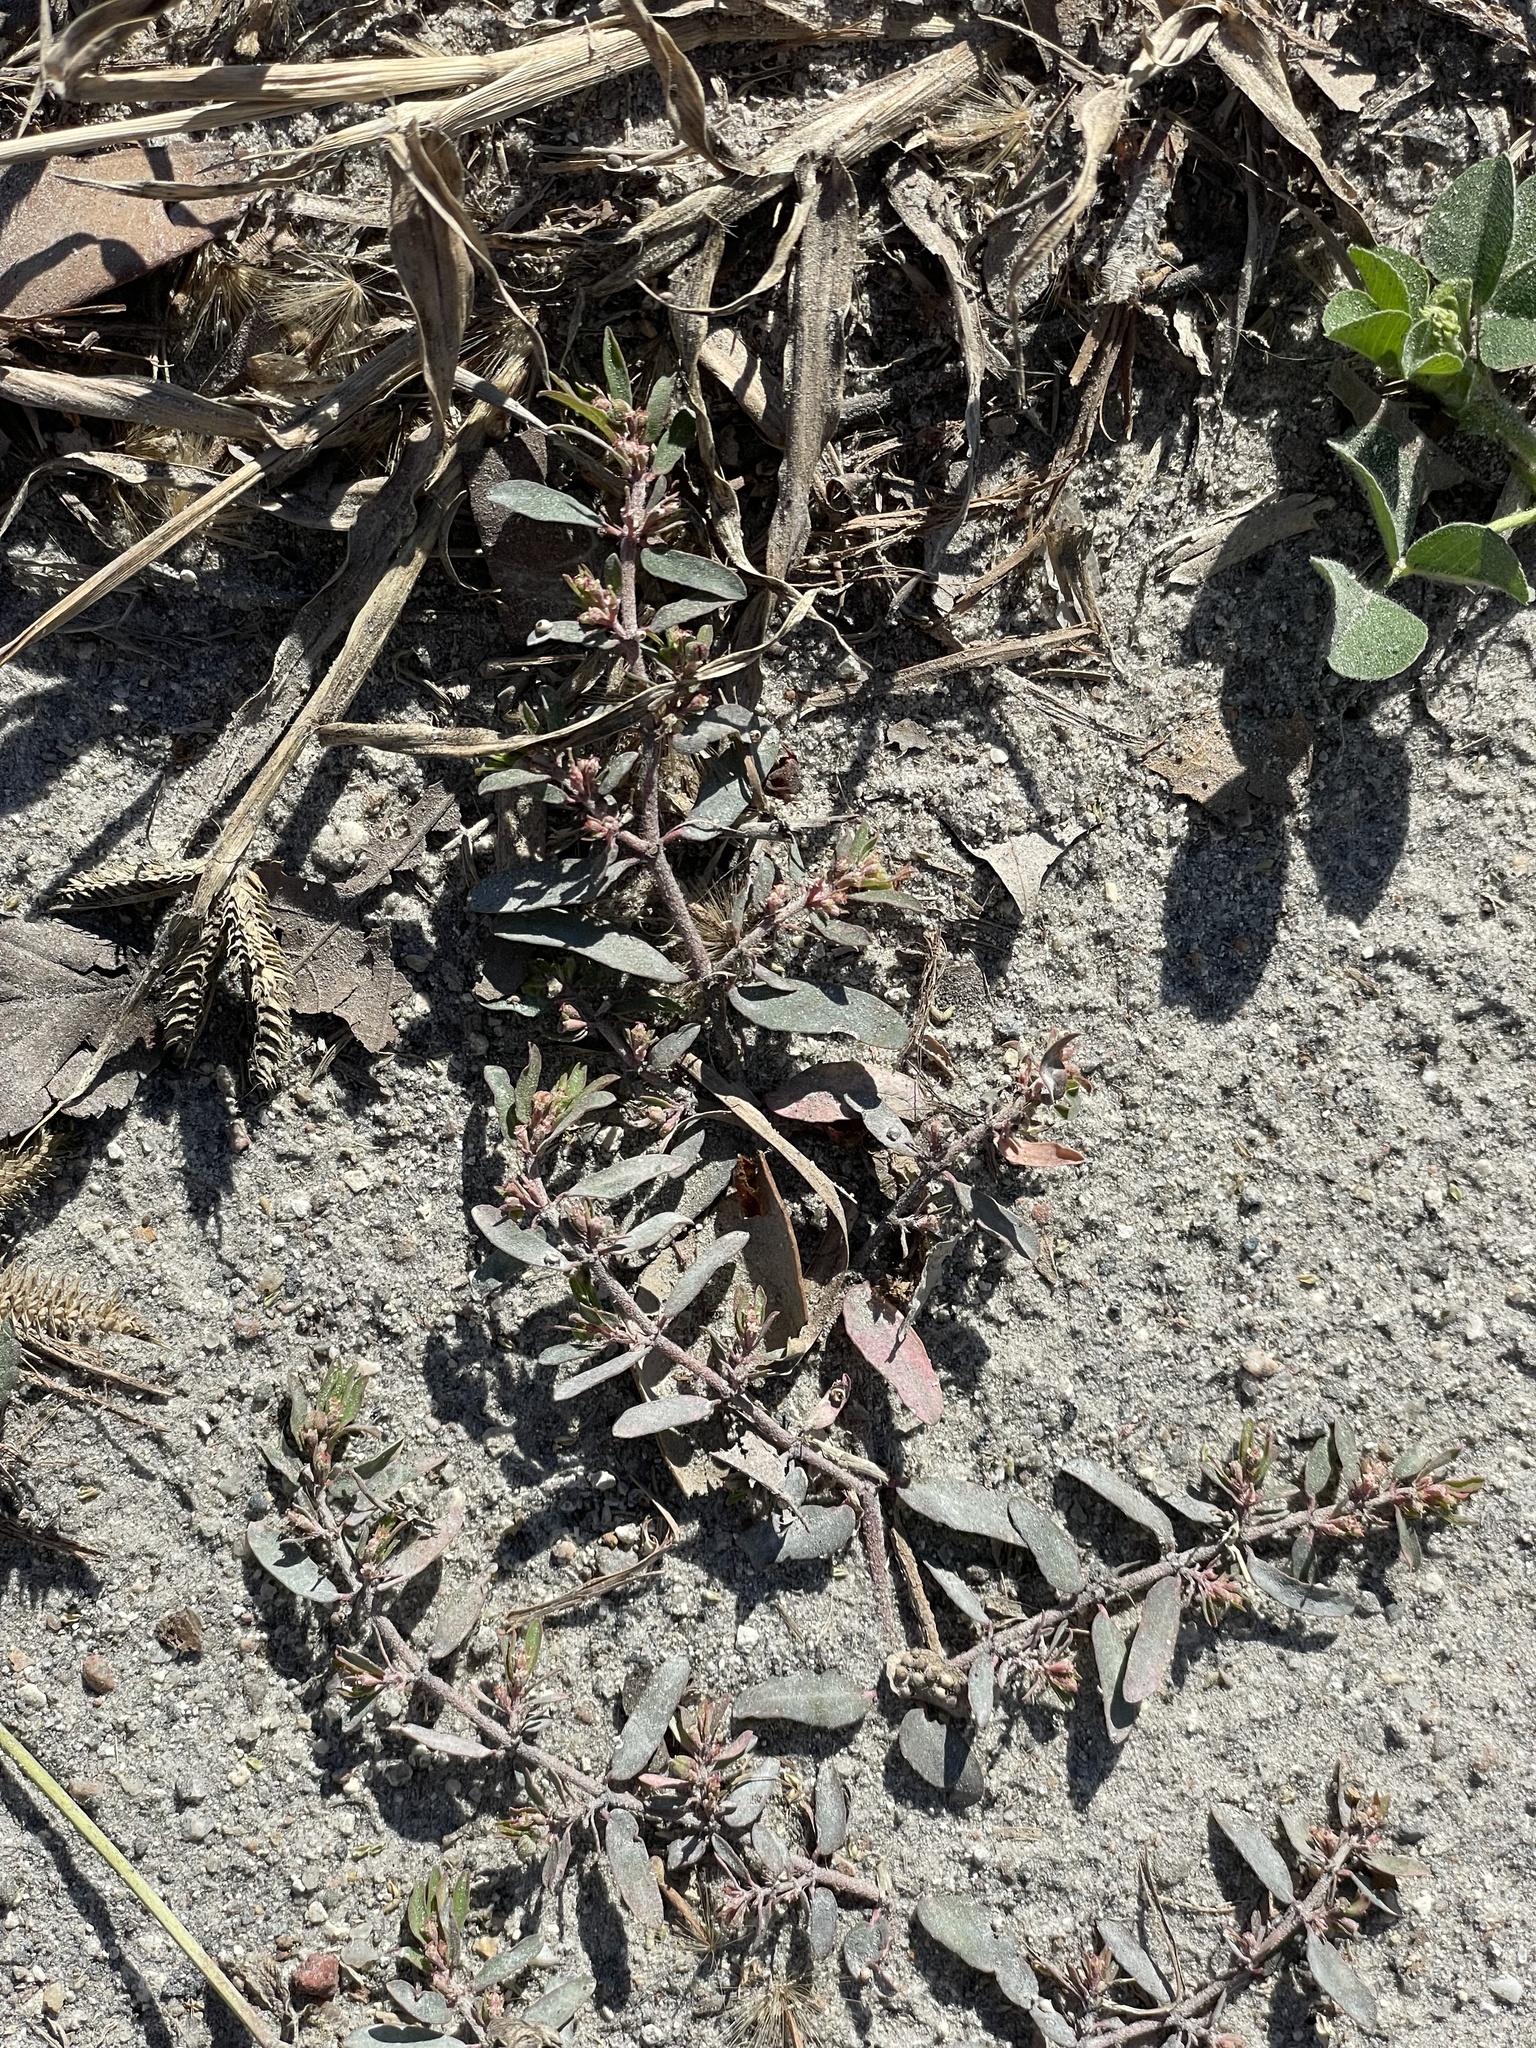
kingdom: Plantae
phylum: Tracheophyta
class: Magnoliopsida
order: Malpighiales
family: Euphorbiaceae
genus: Euphorbia
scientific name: Euphorbia maculata
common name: Spotted spurge
